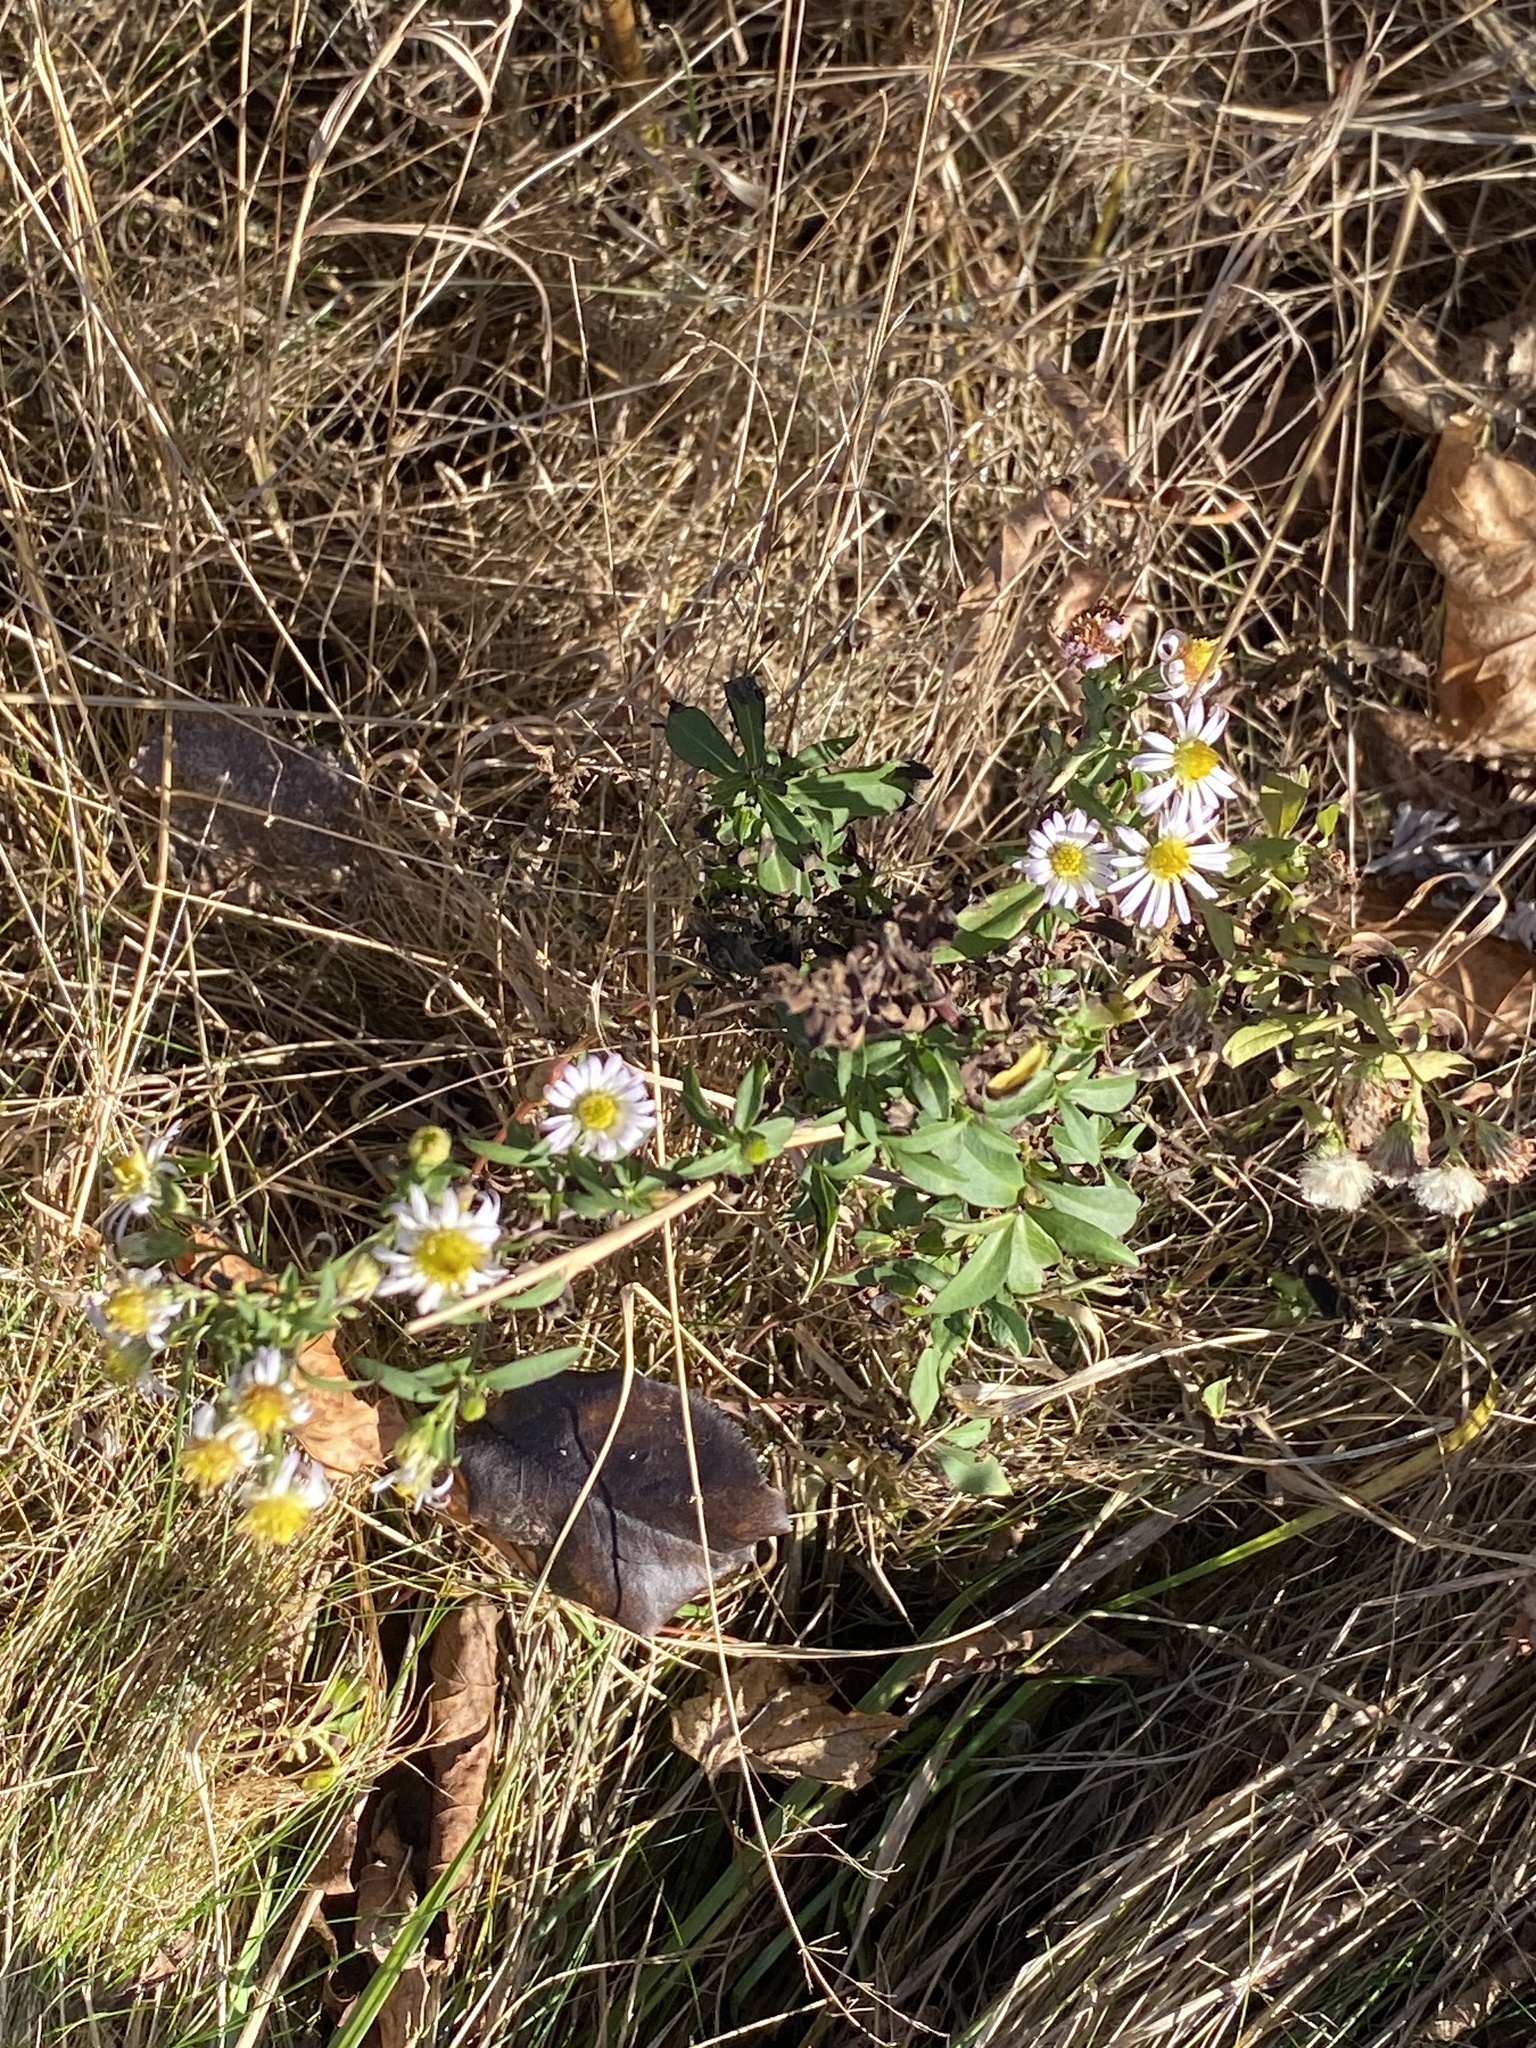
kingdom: Plantae
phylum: Tracheophyta
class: Magnoliopsida
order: Asterales
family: Asteraceae
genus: Symphyotrichum
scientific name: Symphyotrichum lanceolatum
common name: Panicled aster
